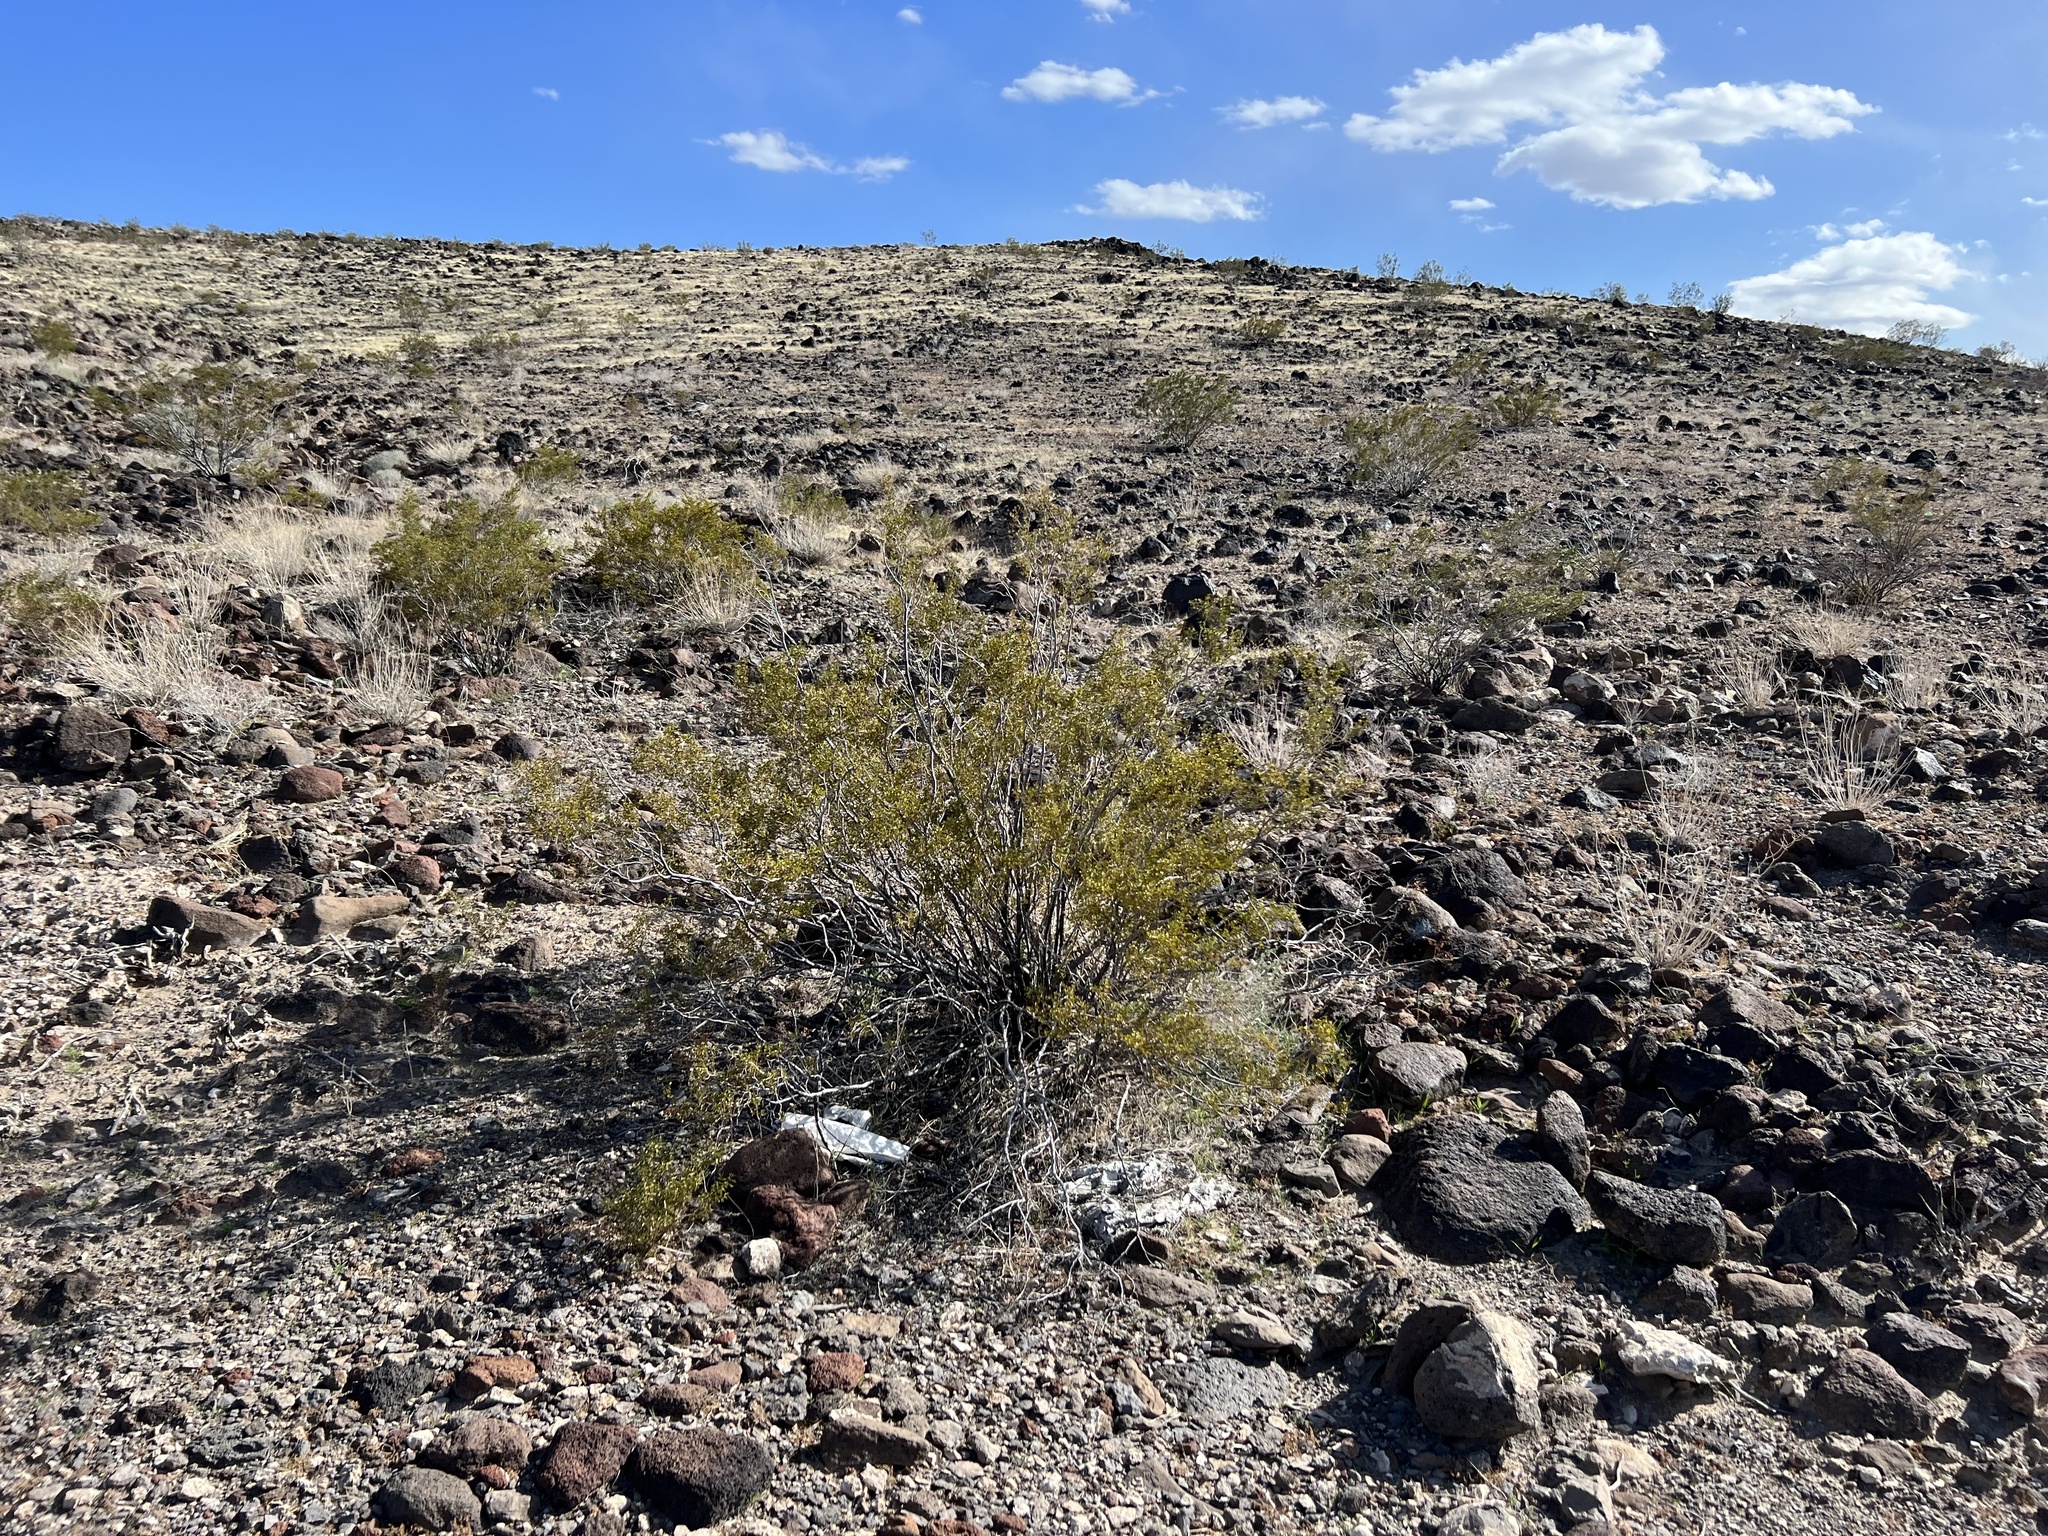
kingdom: Plantae
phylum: Tracheophyta
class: Magnoliopsida
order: Zygophyllales
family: Zygophyllaceae
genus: Larrea
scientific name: Larrea tridentata
